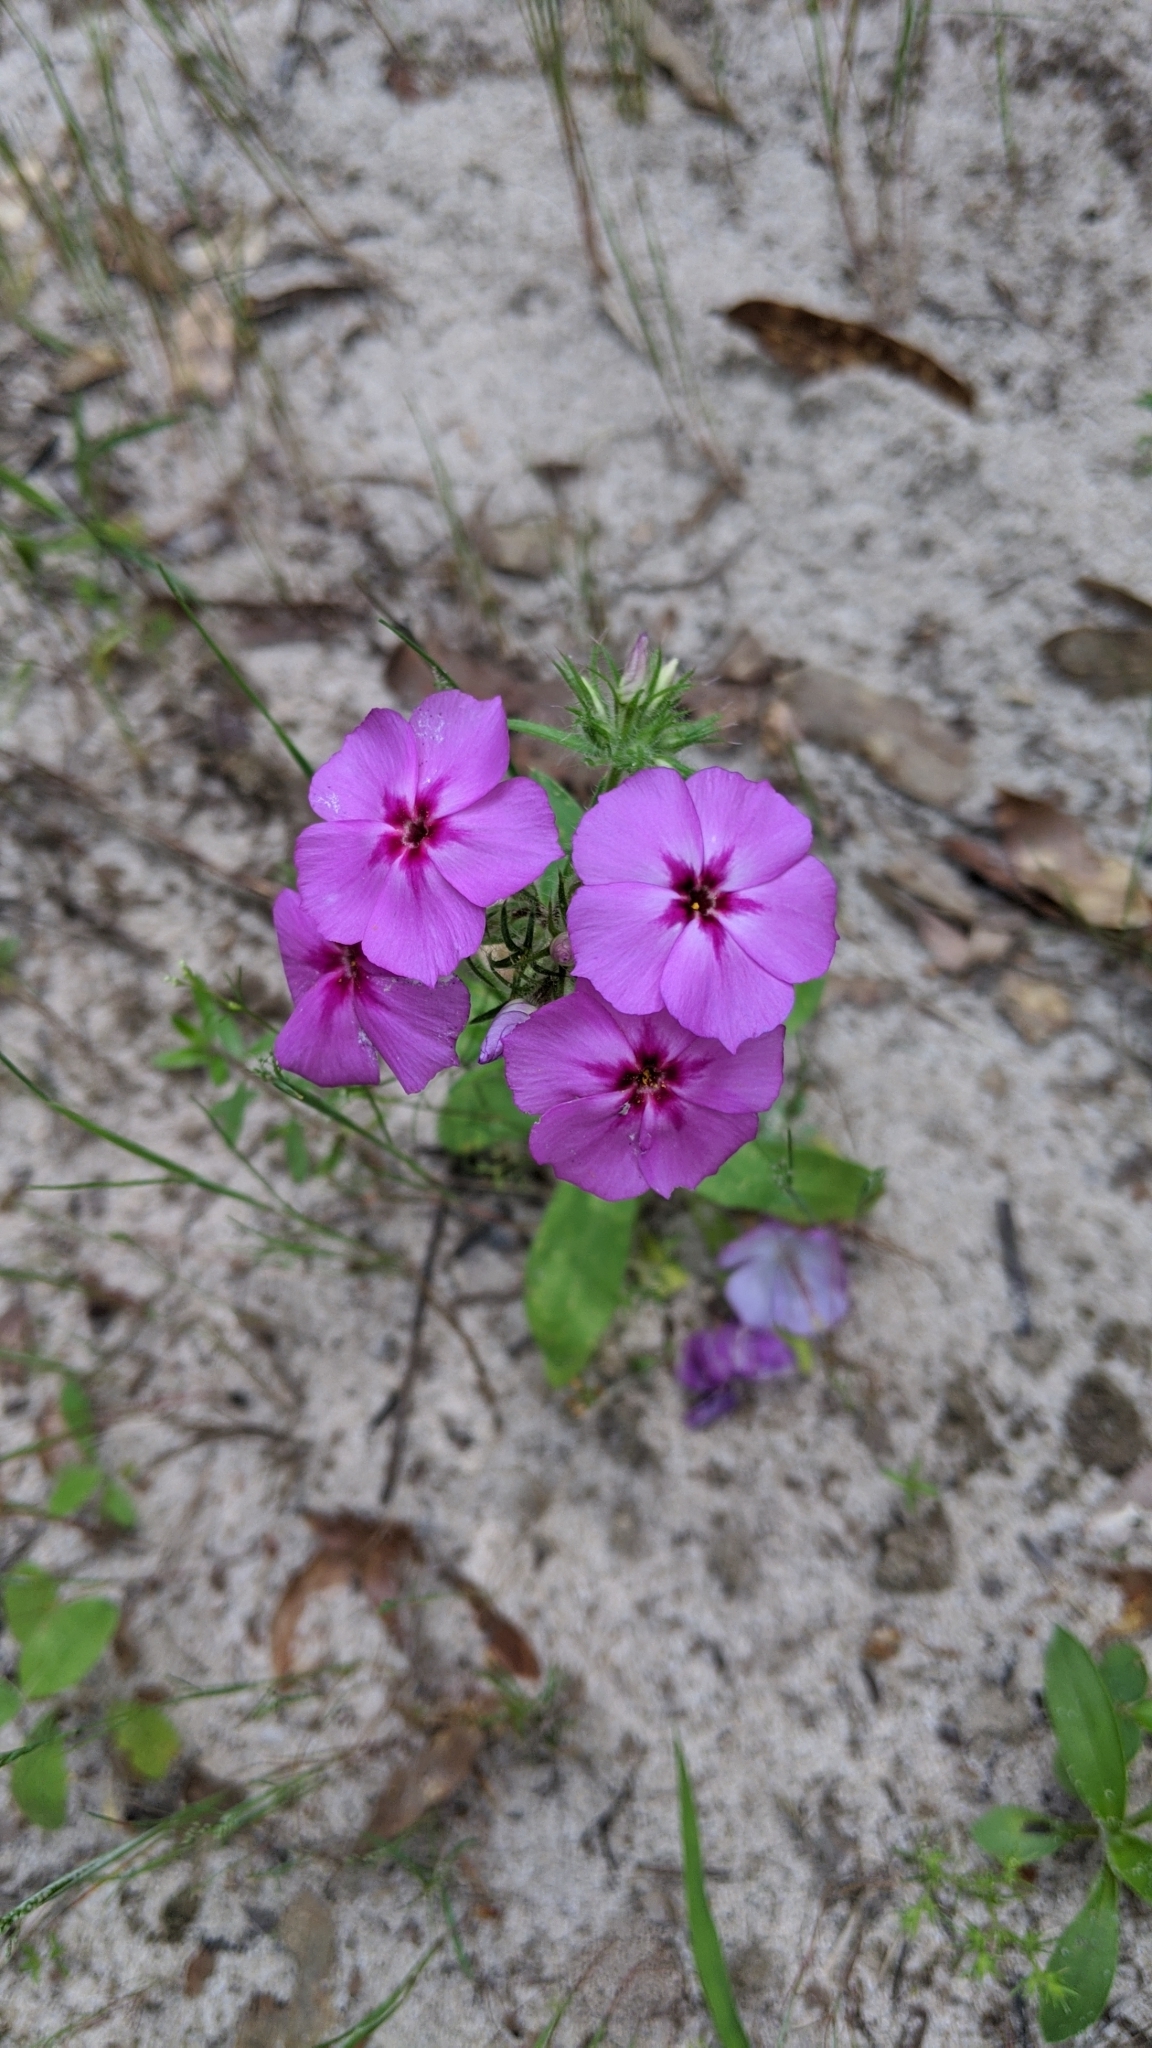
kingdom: Plantae
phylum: Tracheophyta
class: Magnoliopsida
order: Ericales
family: Polemoniaceae
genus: Phlox
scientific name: Phlox drummondii
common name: Drummond's phlox
